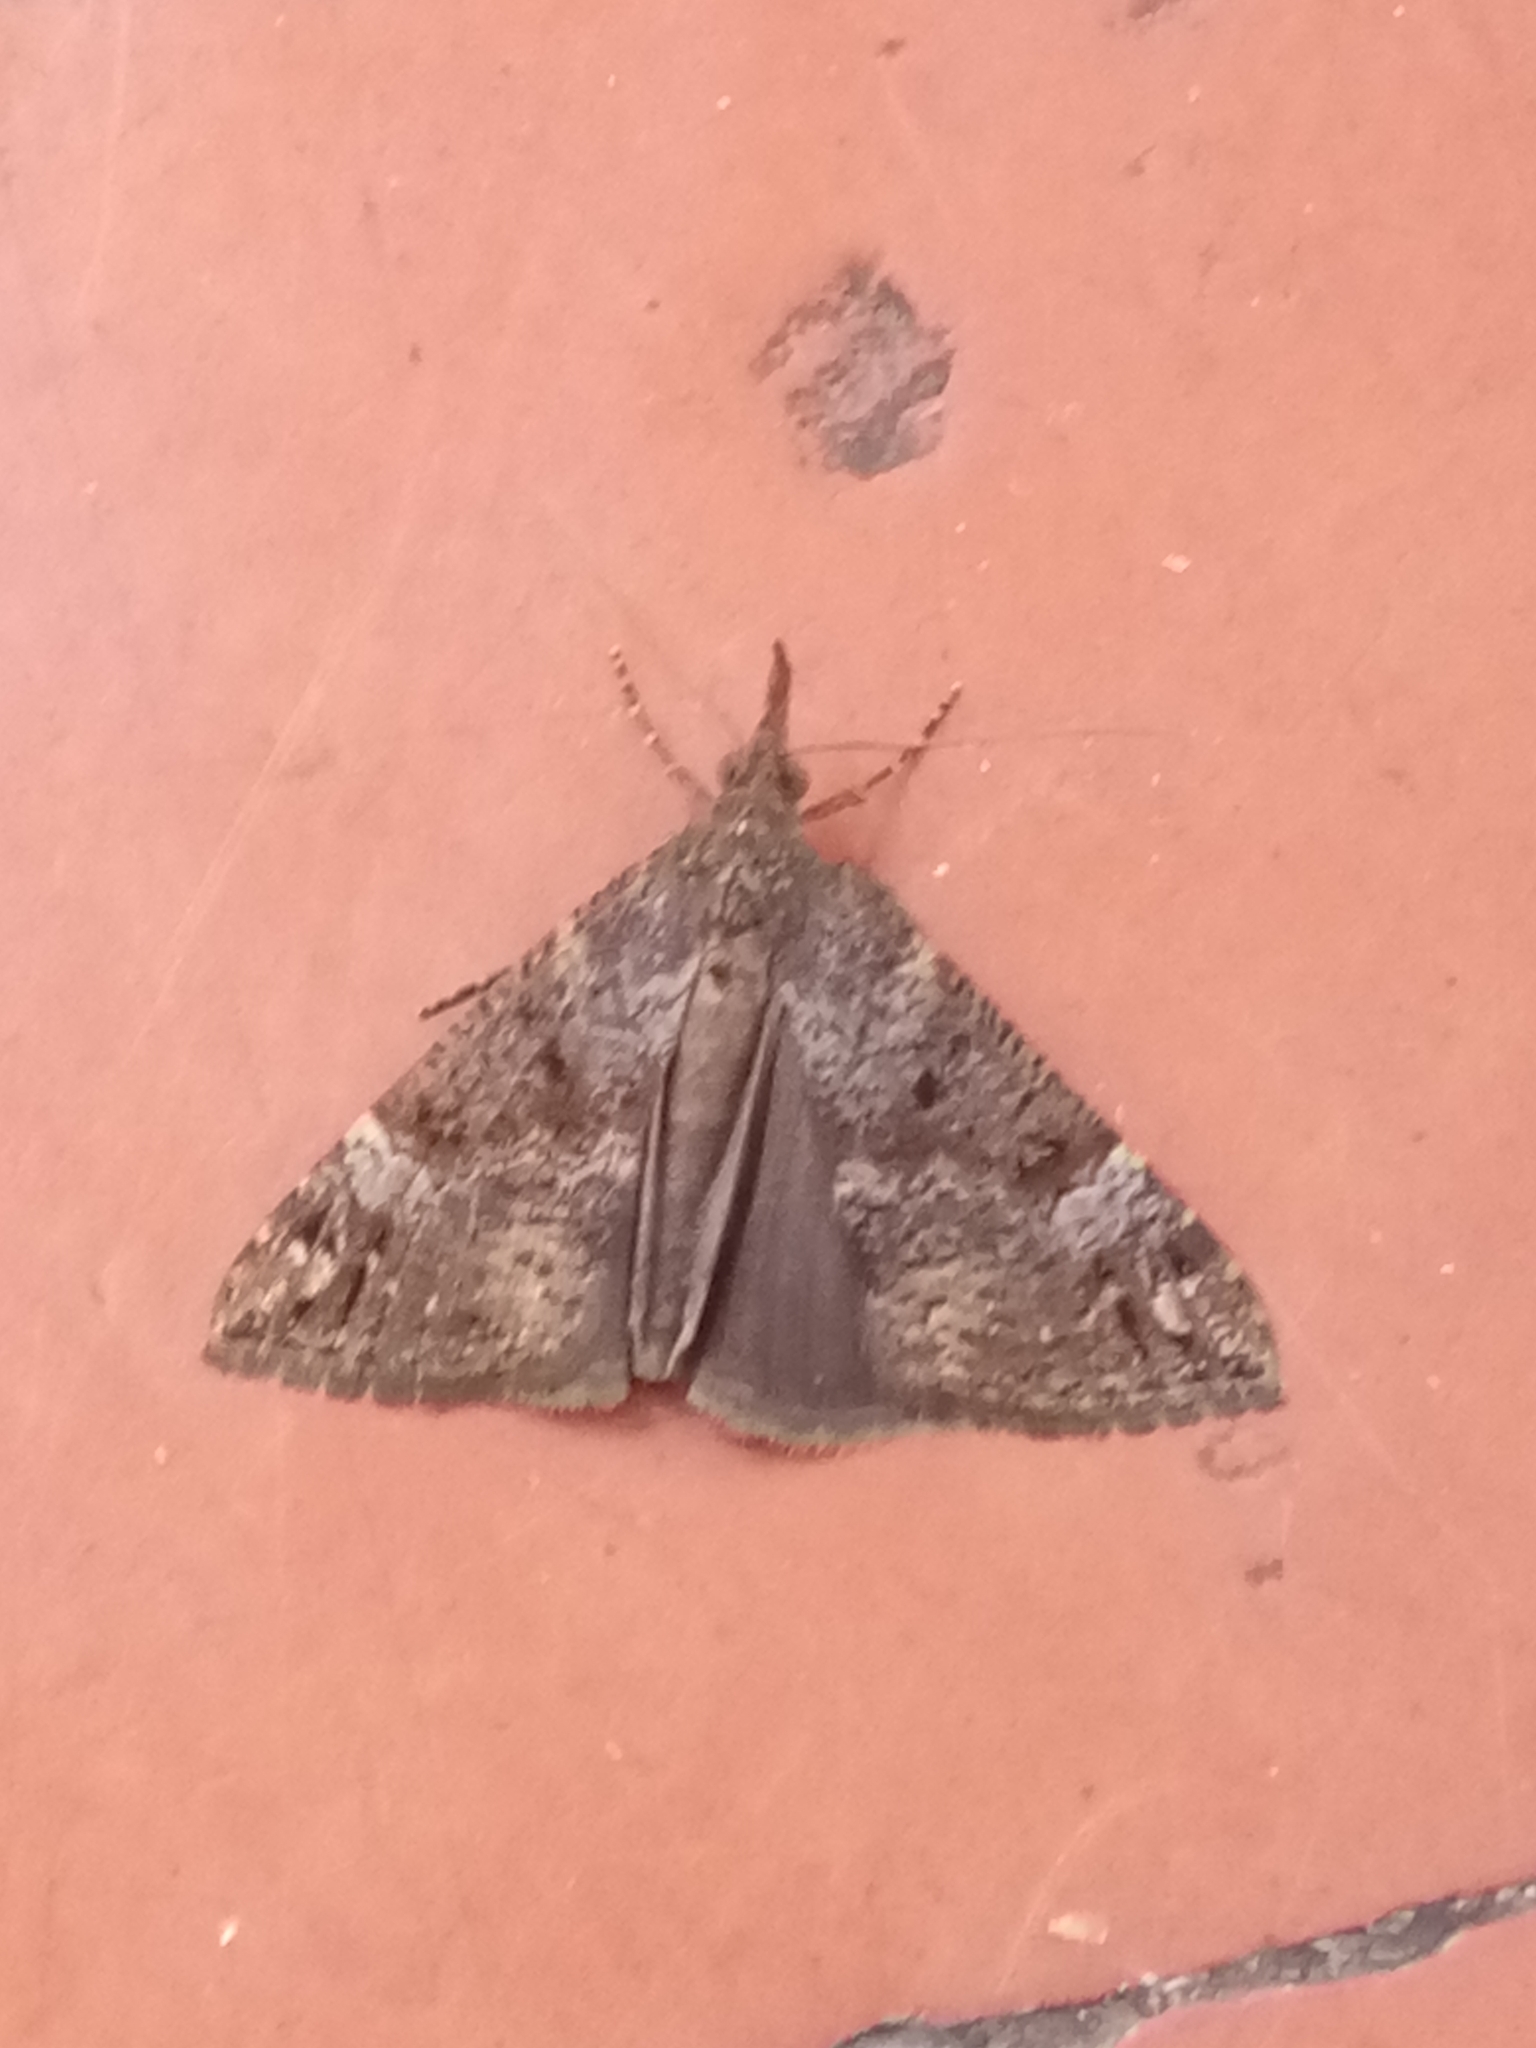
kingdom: Animalia
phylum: Arthropoda
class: Insecta
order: Lepidoptera
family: Erebidae
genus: Hypena
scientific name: Hypena obsitalis
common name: Bloxworth snout
